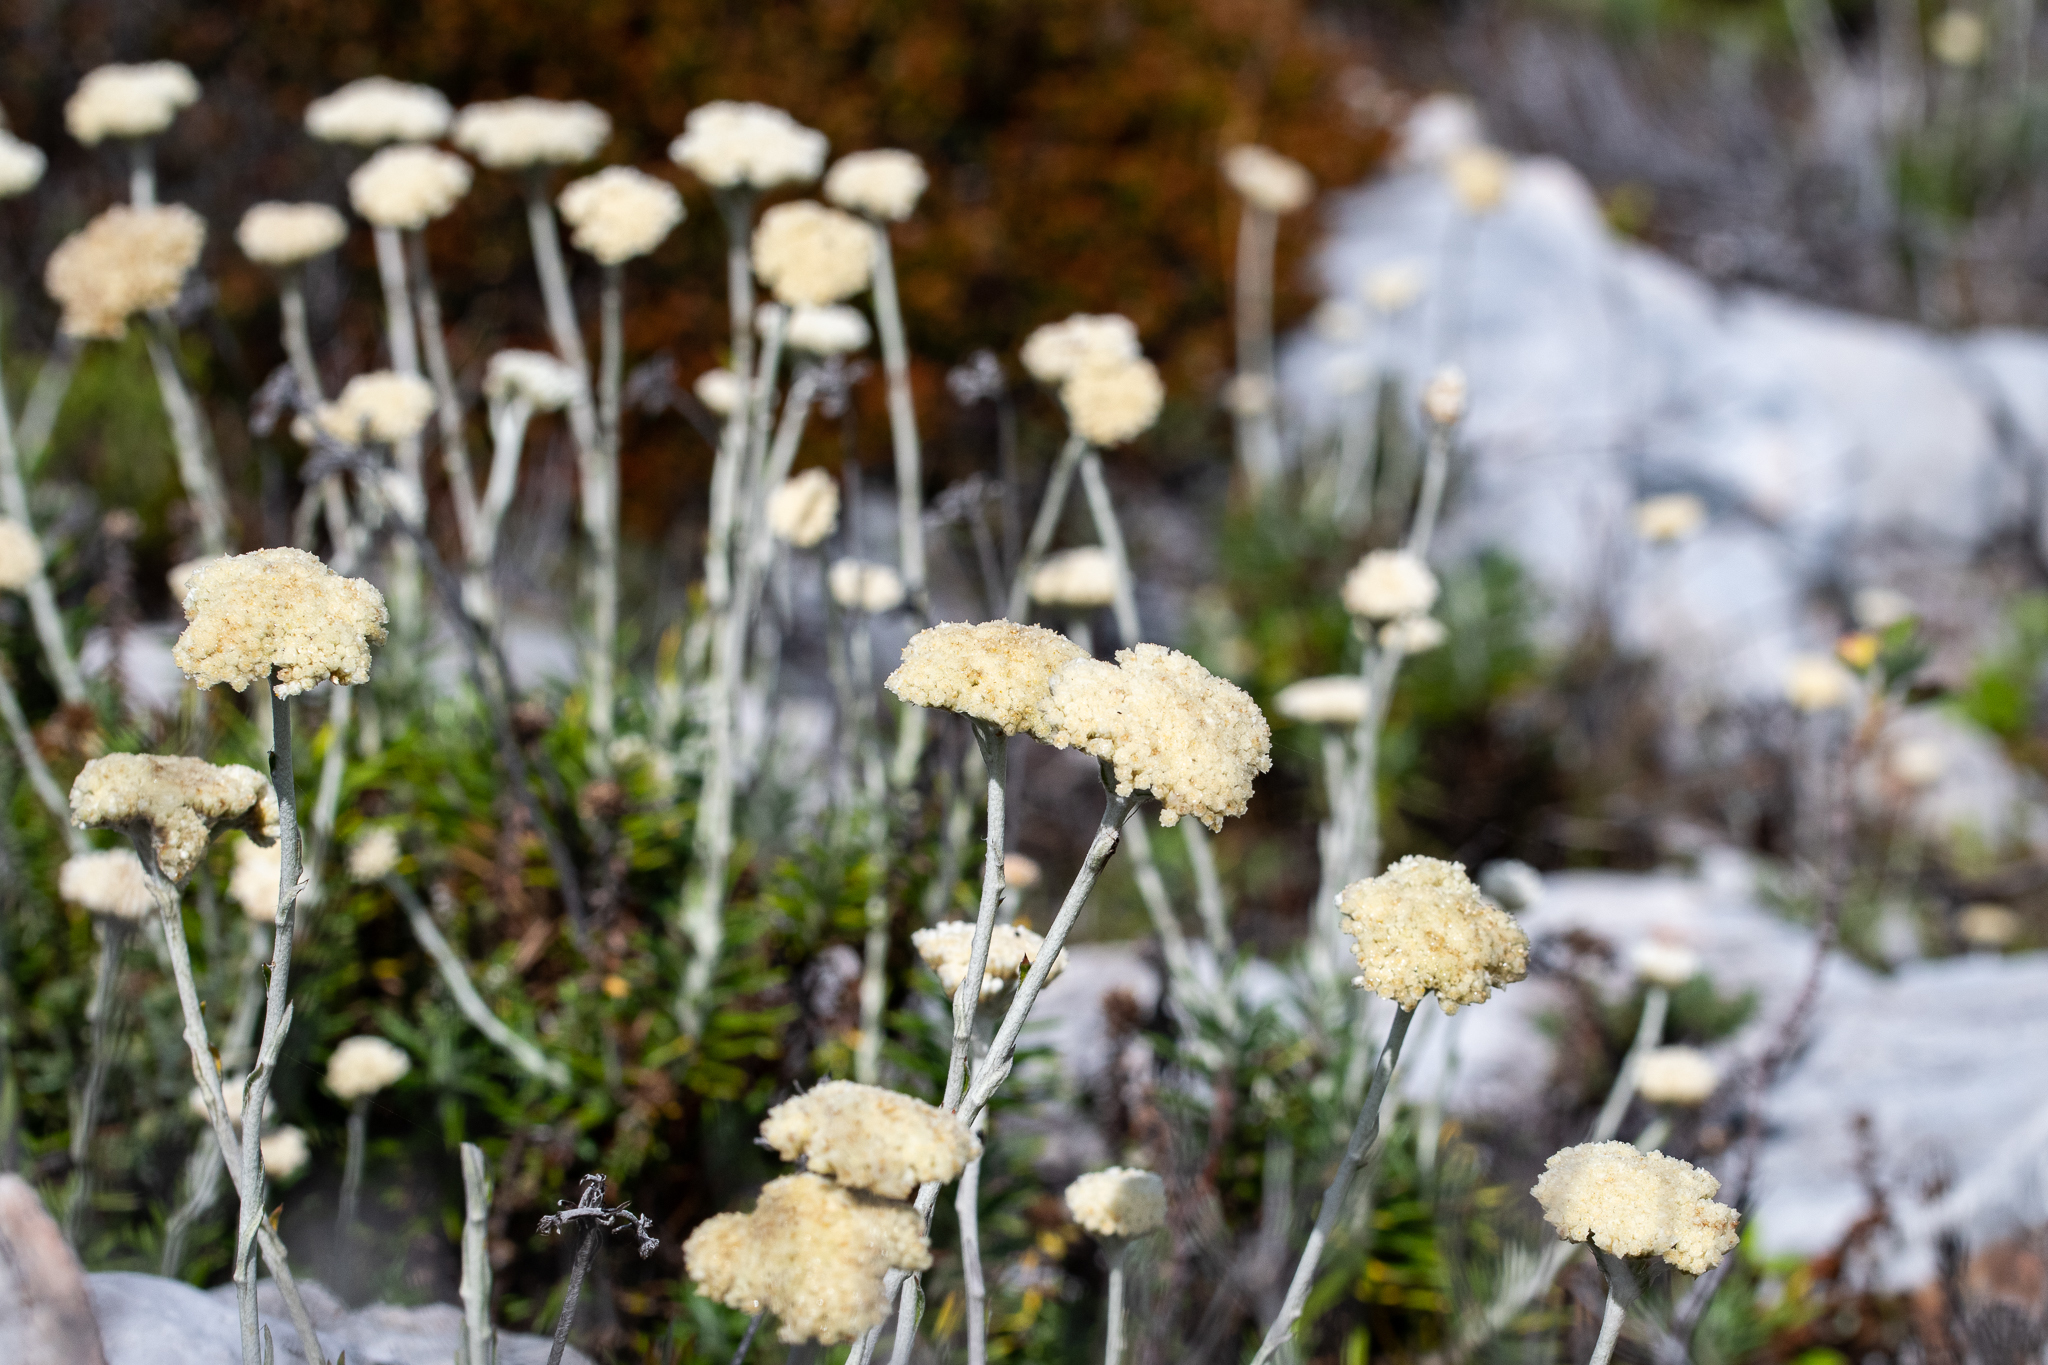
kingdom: Plantae
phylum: Tracheophyta
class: Magnoliopsida
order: Asterales
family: Asteraceae
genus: Anaxeton
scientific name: Anaxeton asperum
